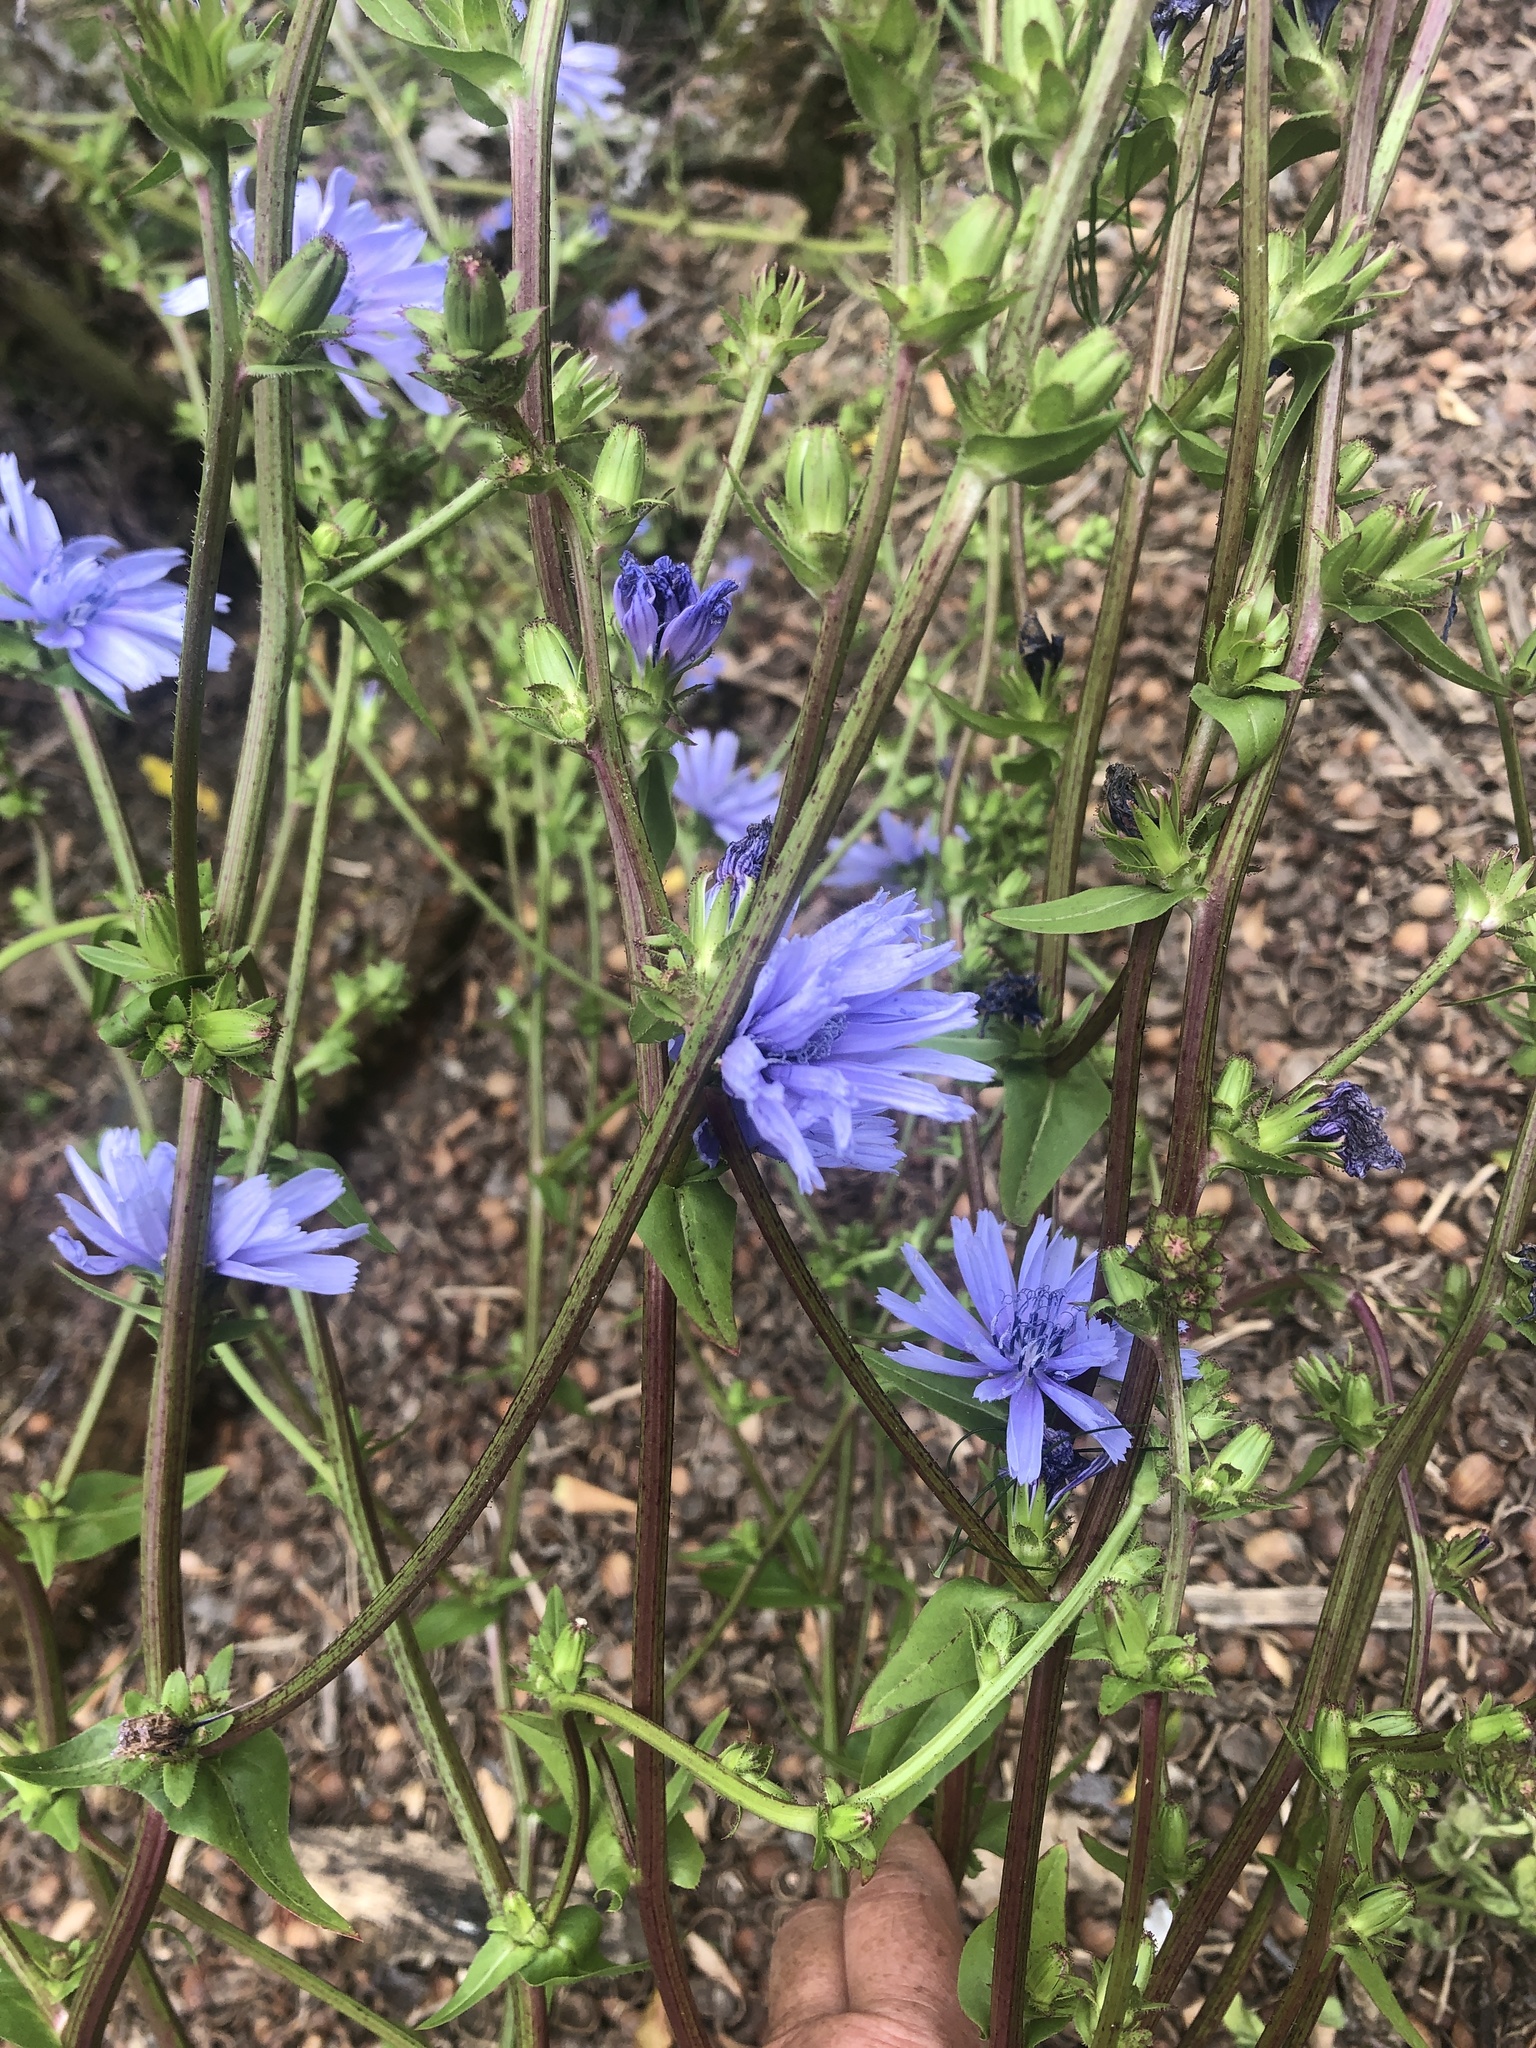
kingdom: Plantae
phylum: Tracheophyta
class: Magnoliopsida
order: Asterales
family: Asteraceae
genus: Cichorium
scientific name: Cichorium intybus
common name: Chicory
